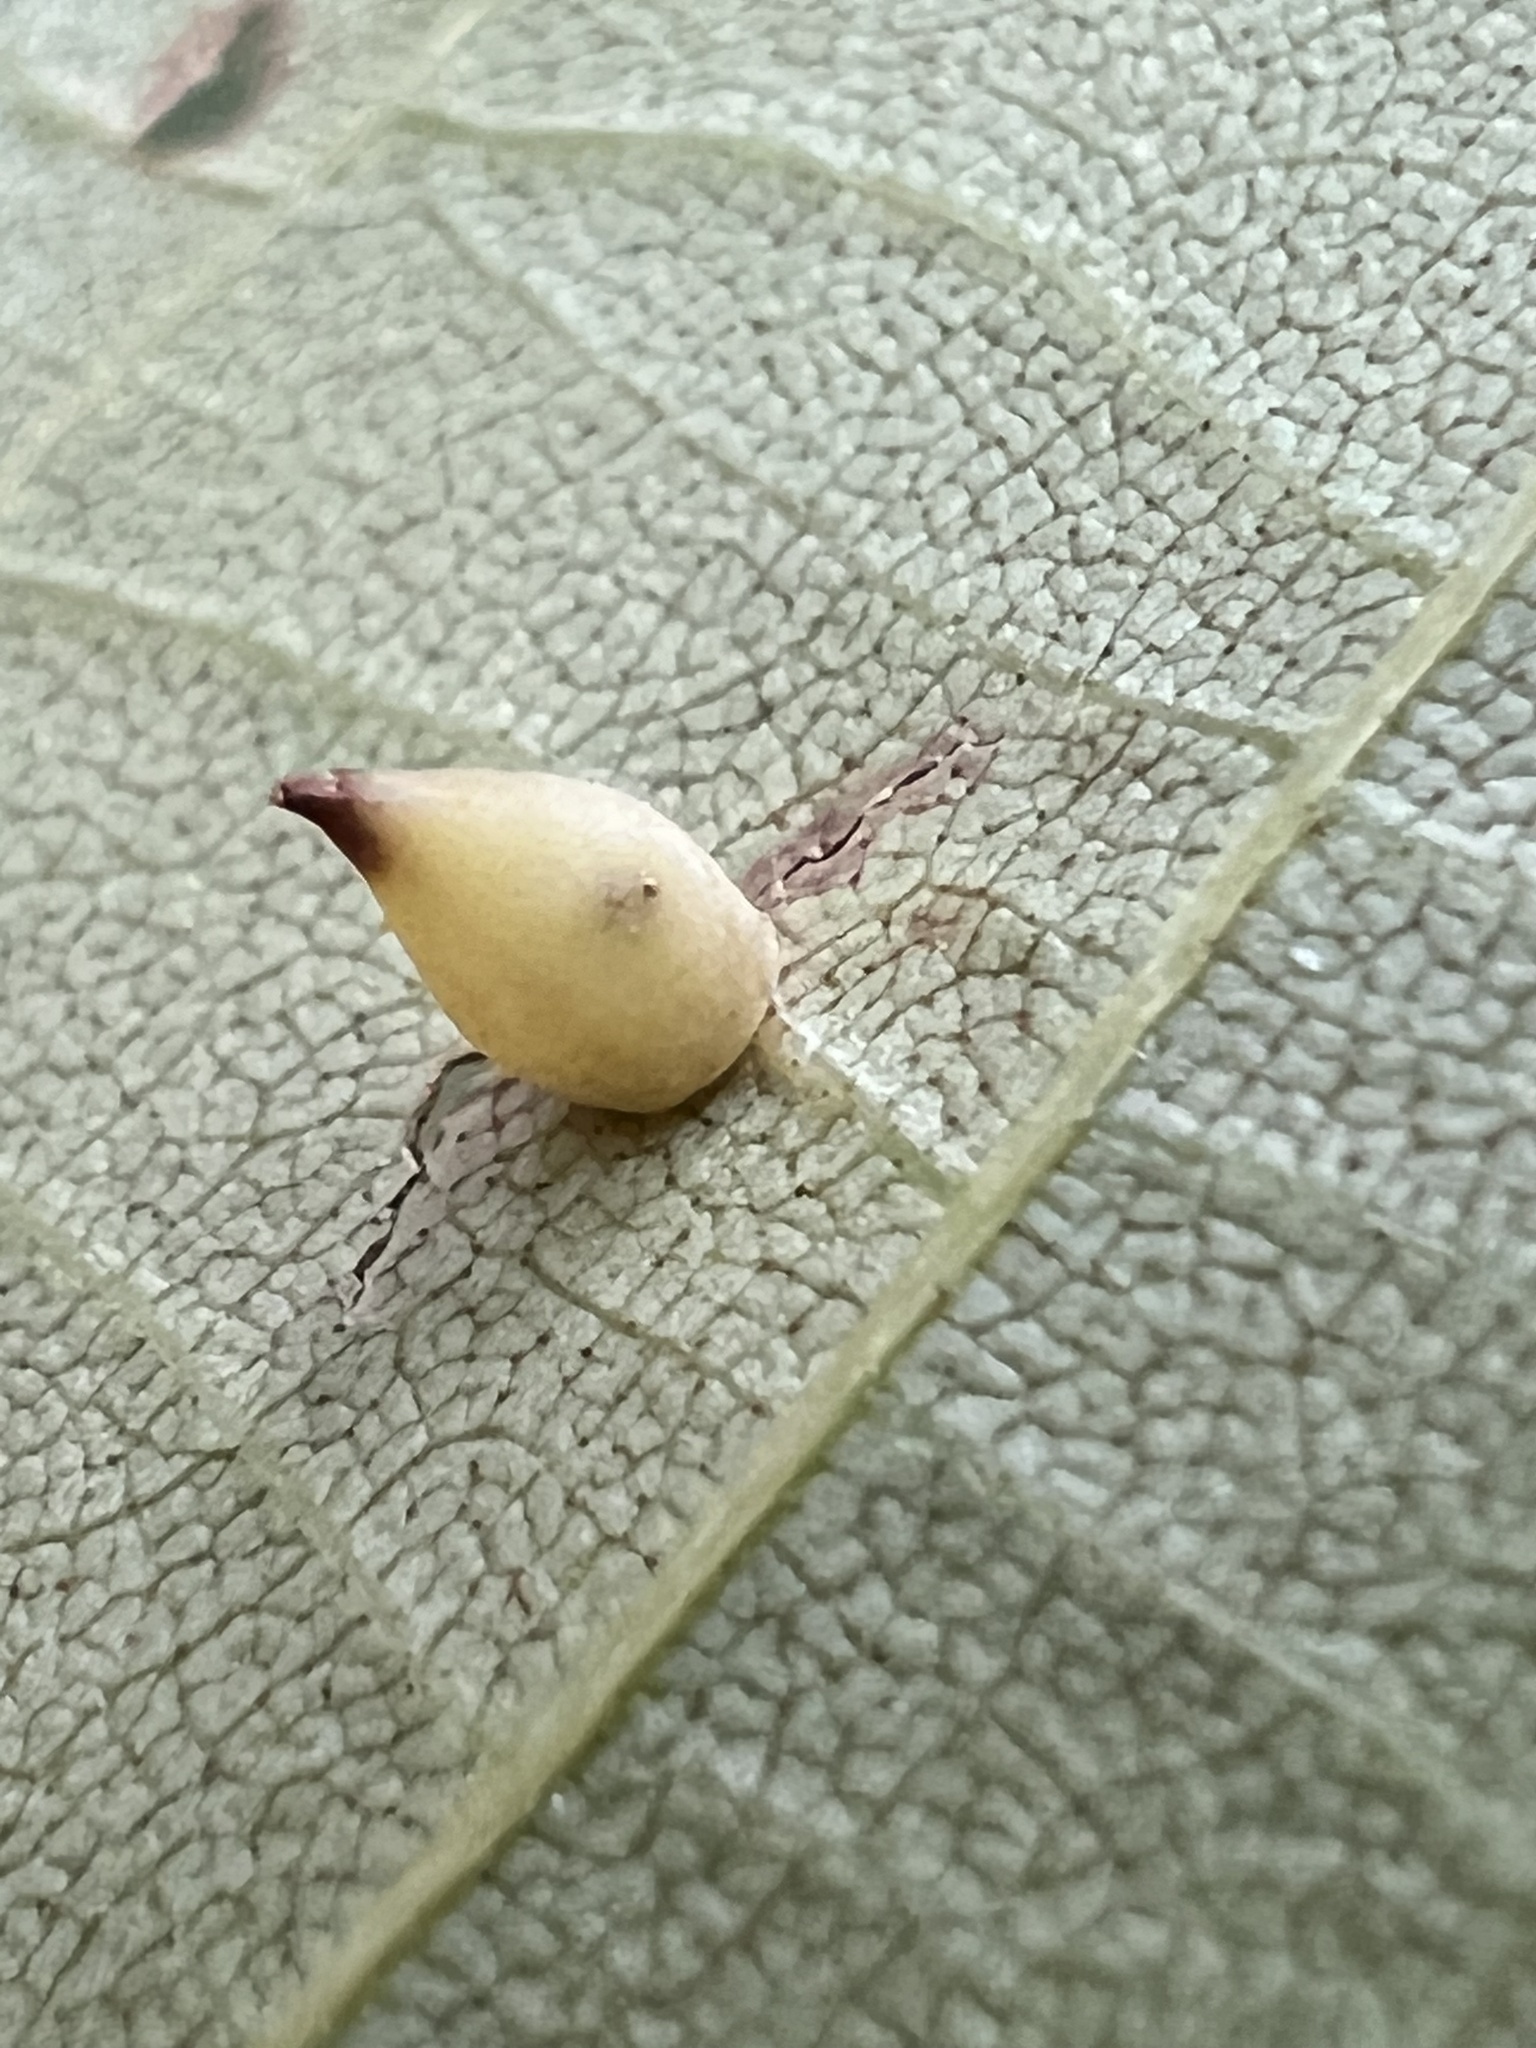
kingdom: Animalia
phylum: Arthropoda
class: Insecta
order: Diptera
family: Cecidomyiidae
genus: Caryomyia
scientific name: Caryomyia caryaecola
